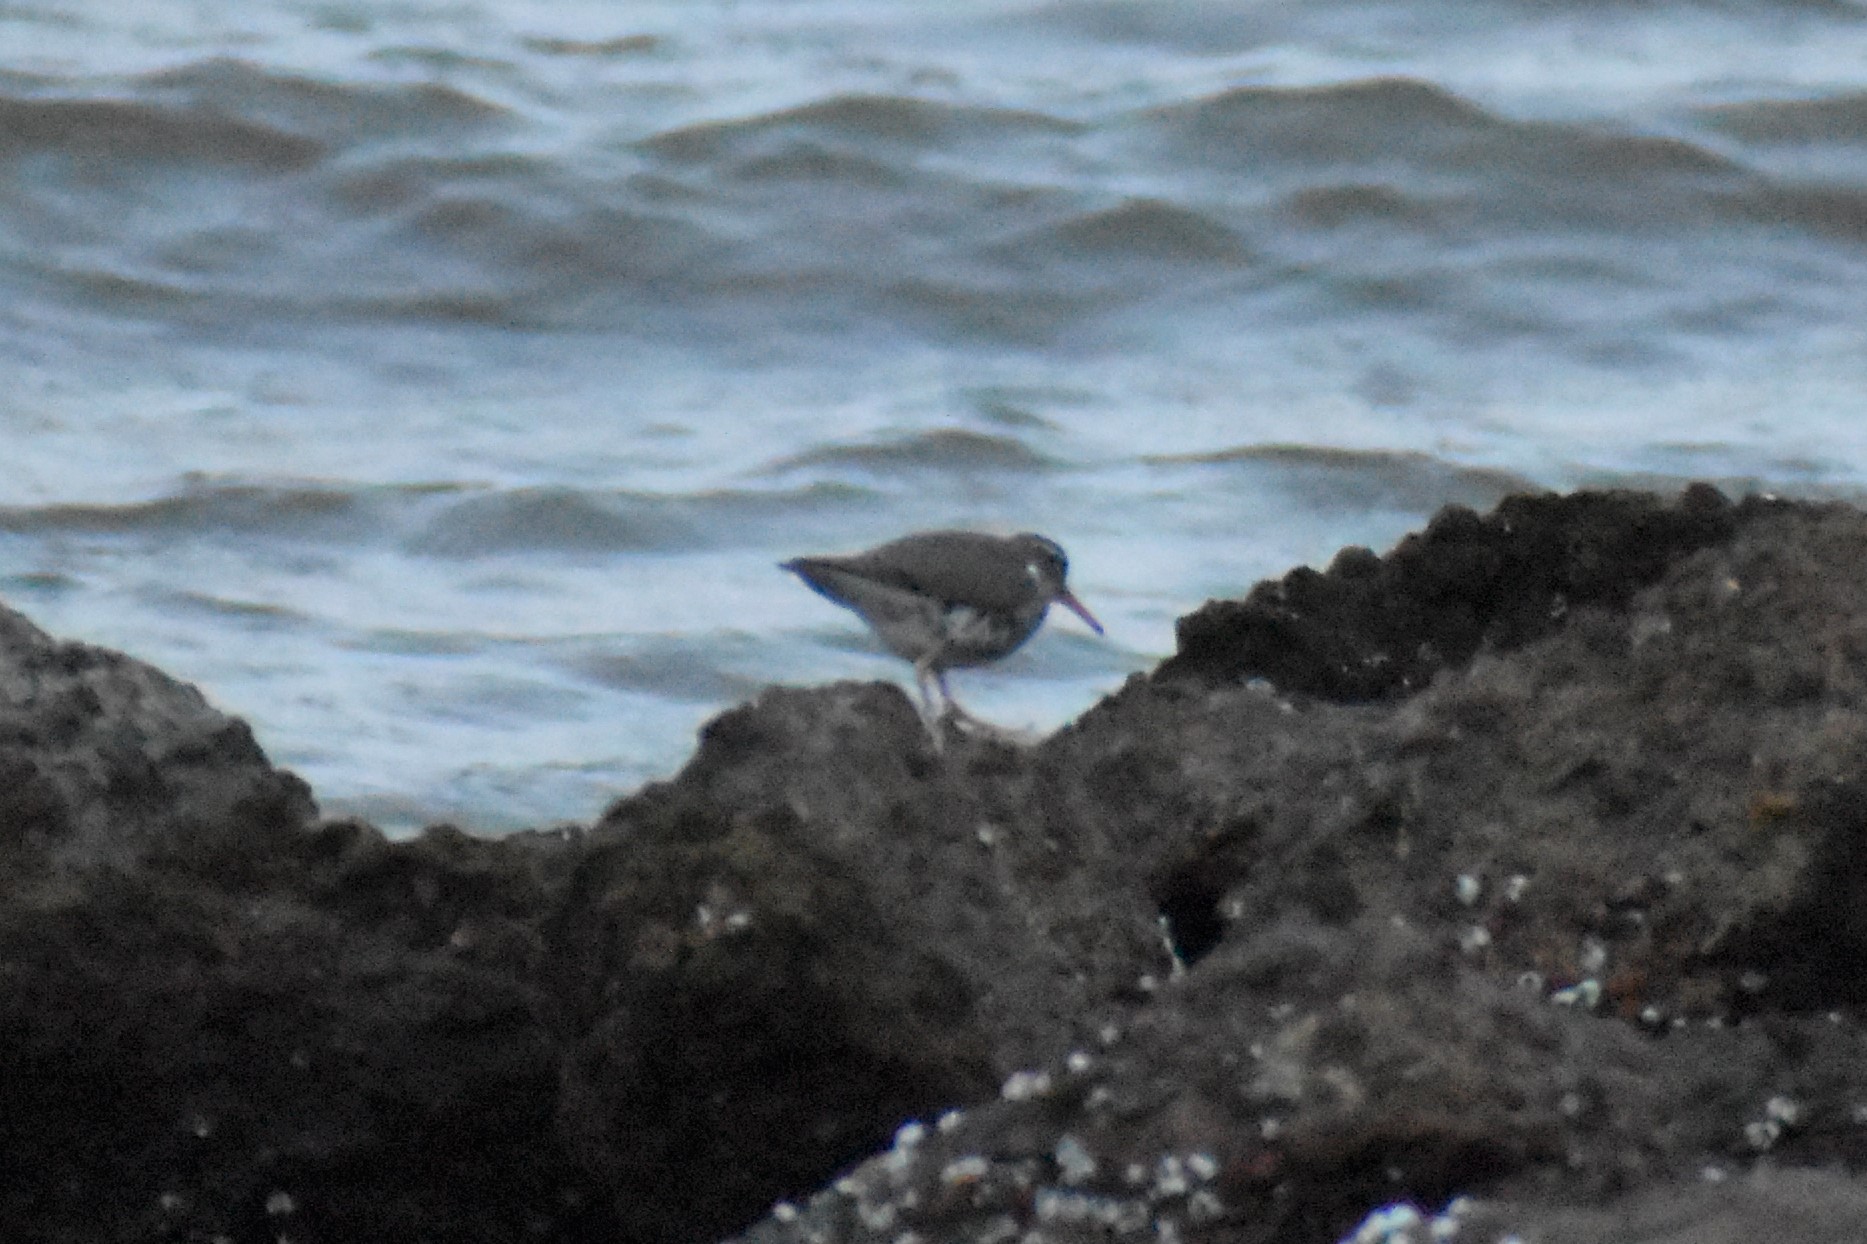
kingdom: Animalia
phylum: Chordata
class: Aves
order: Charadriiformes
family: Scolopacidae
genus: Actitis
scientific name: Actitis macularius
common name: Spotted sandpiper
